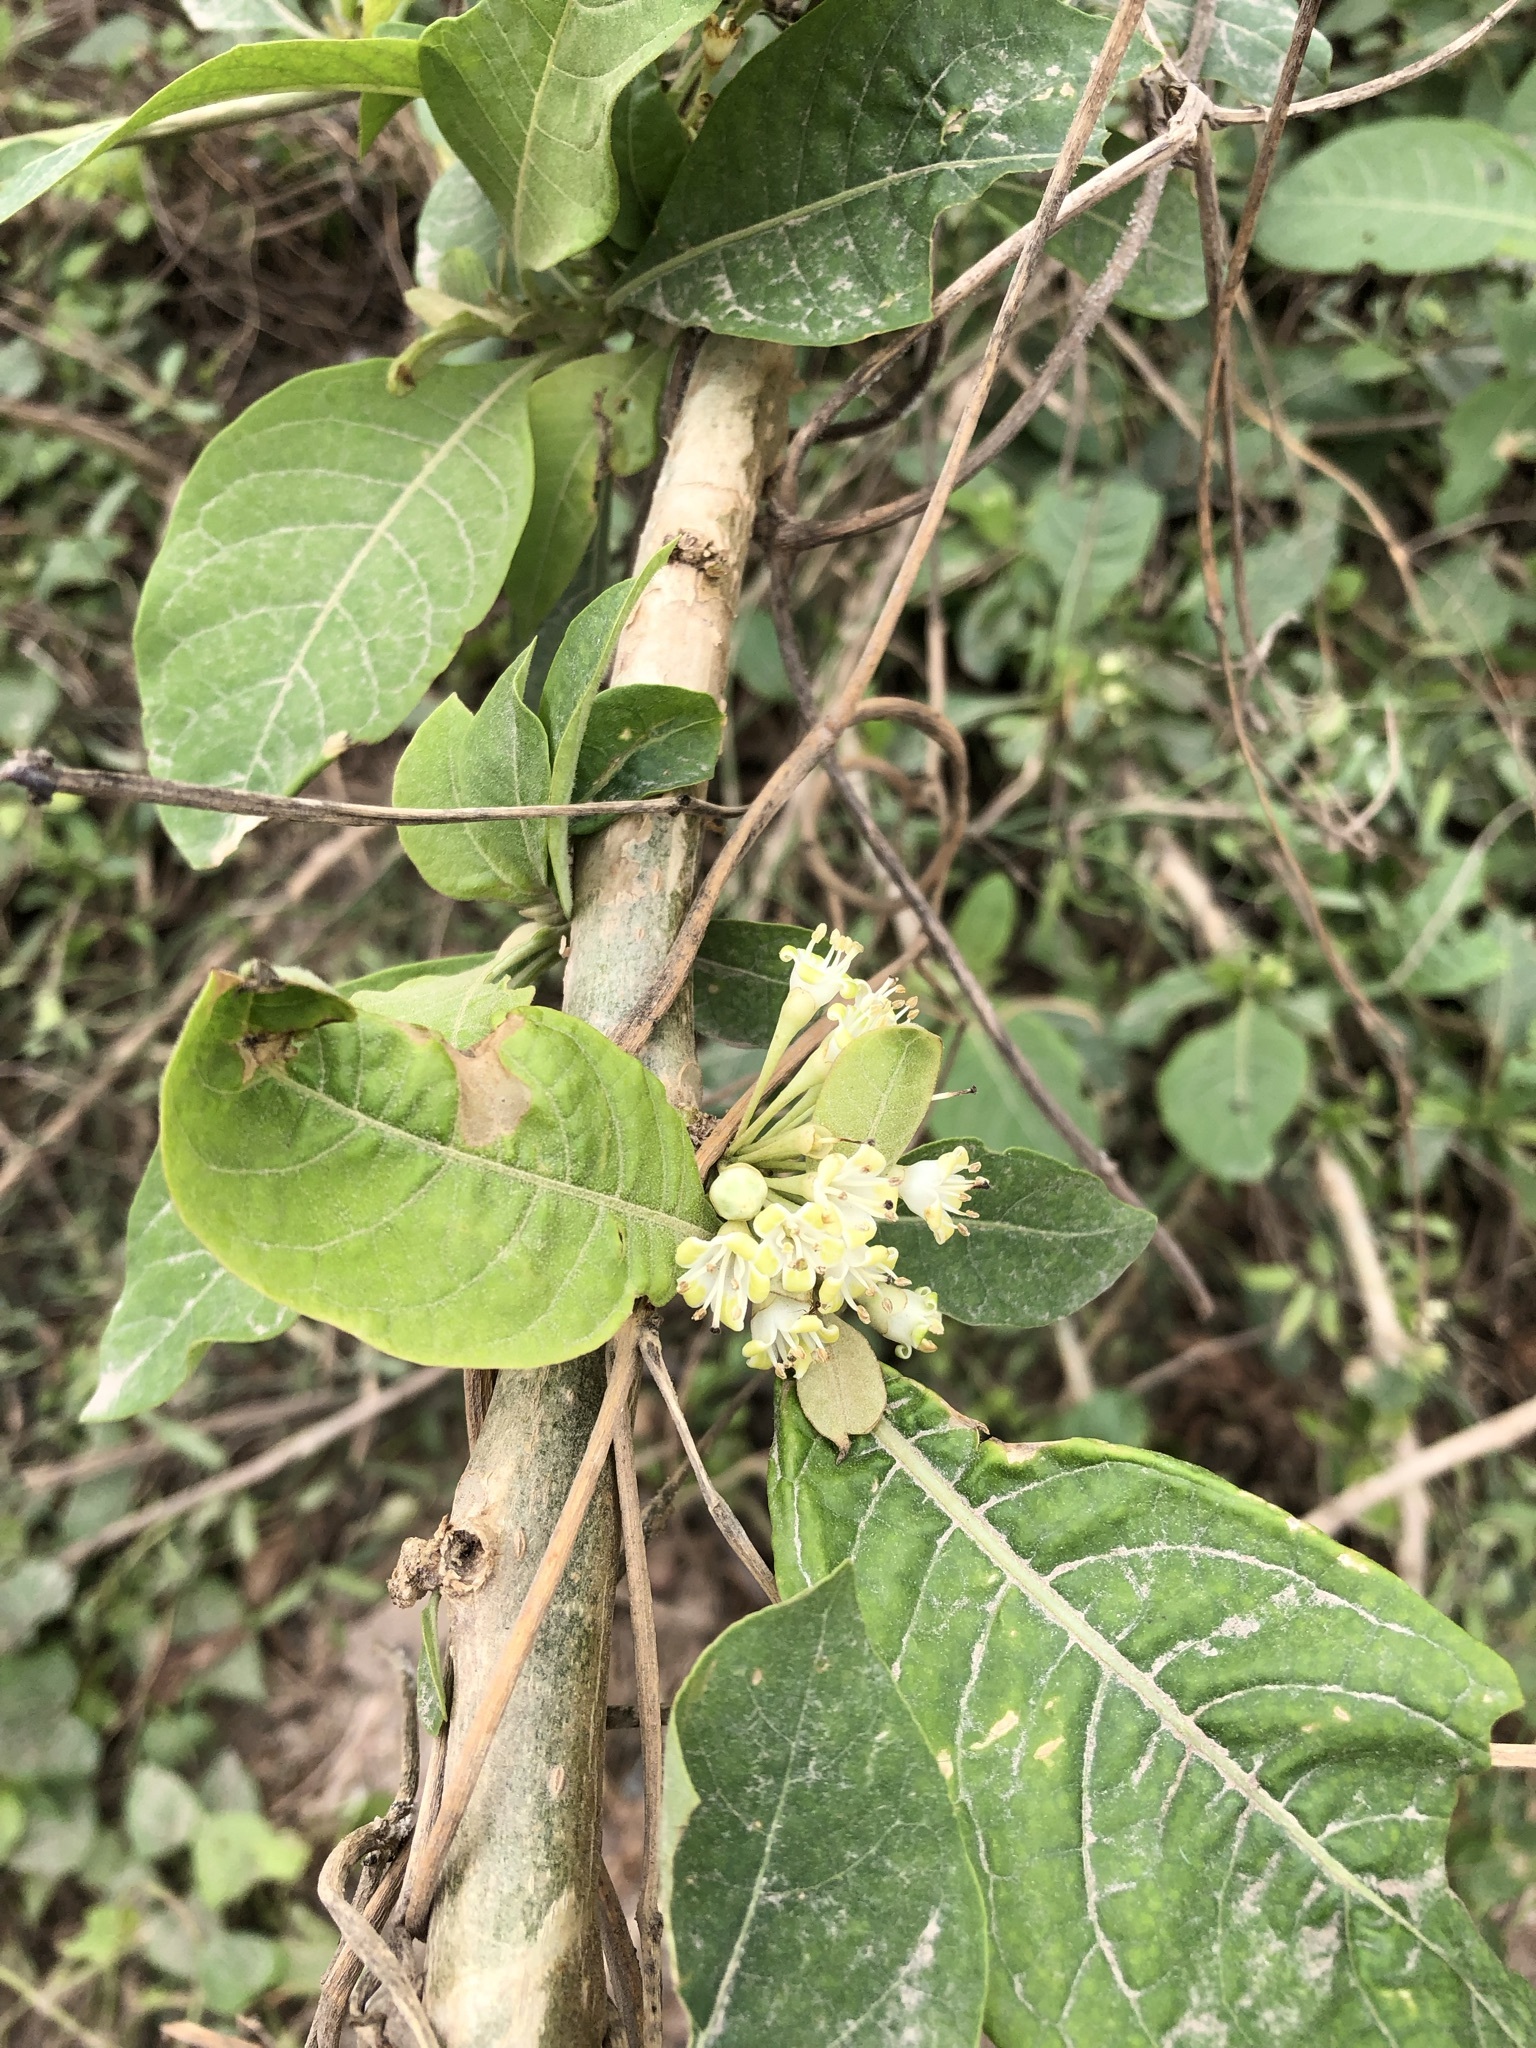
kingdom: Plantae
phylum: Tracheophyta
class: Magnoliopsida
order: Solanales
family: Solanaceae
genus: Iochroma
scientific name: Iochroma arborescens
